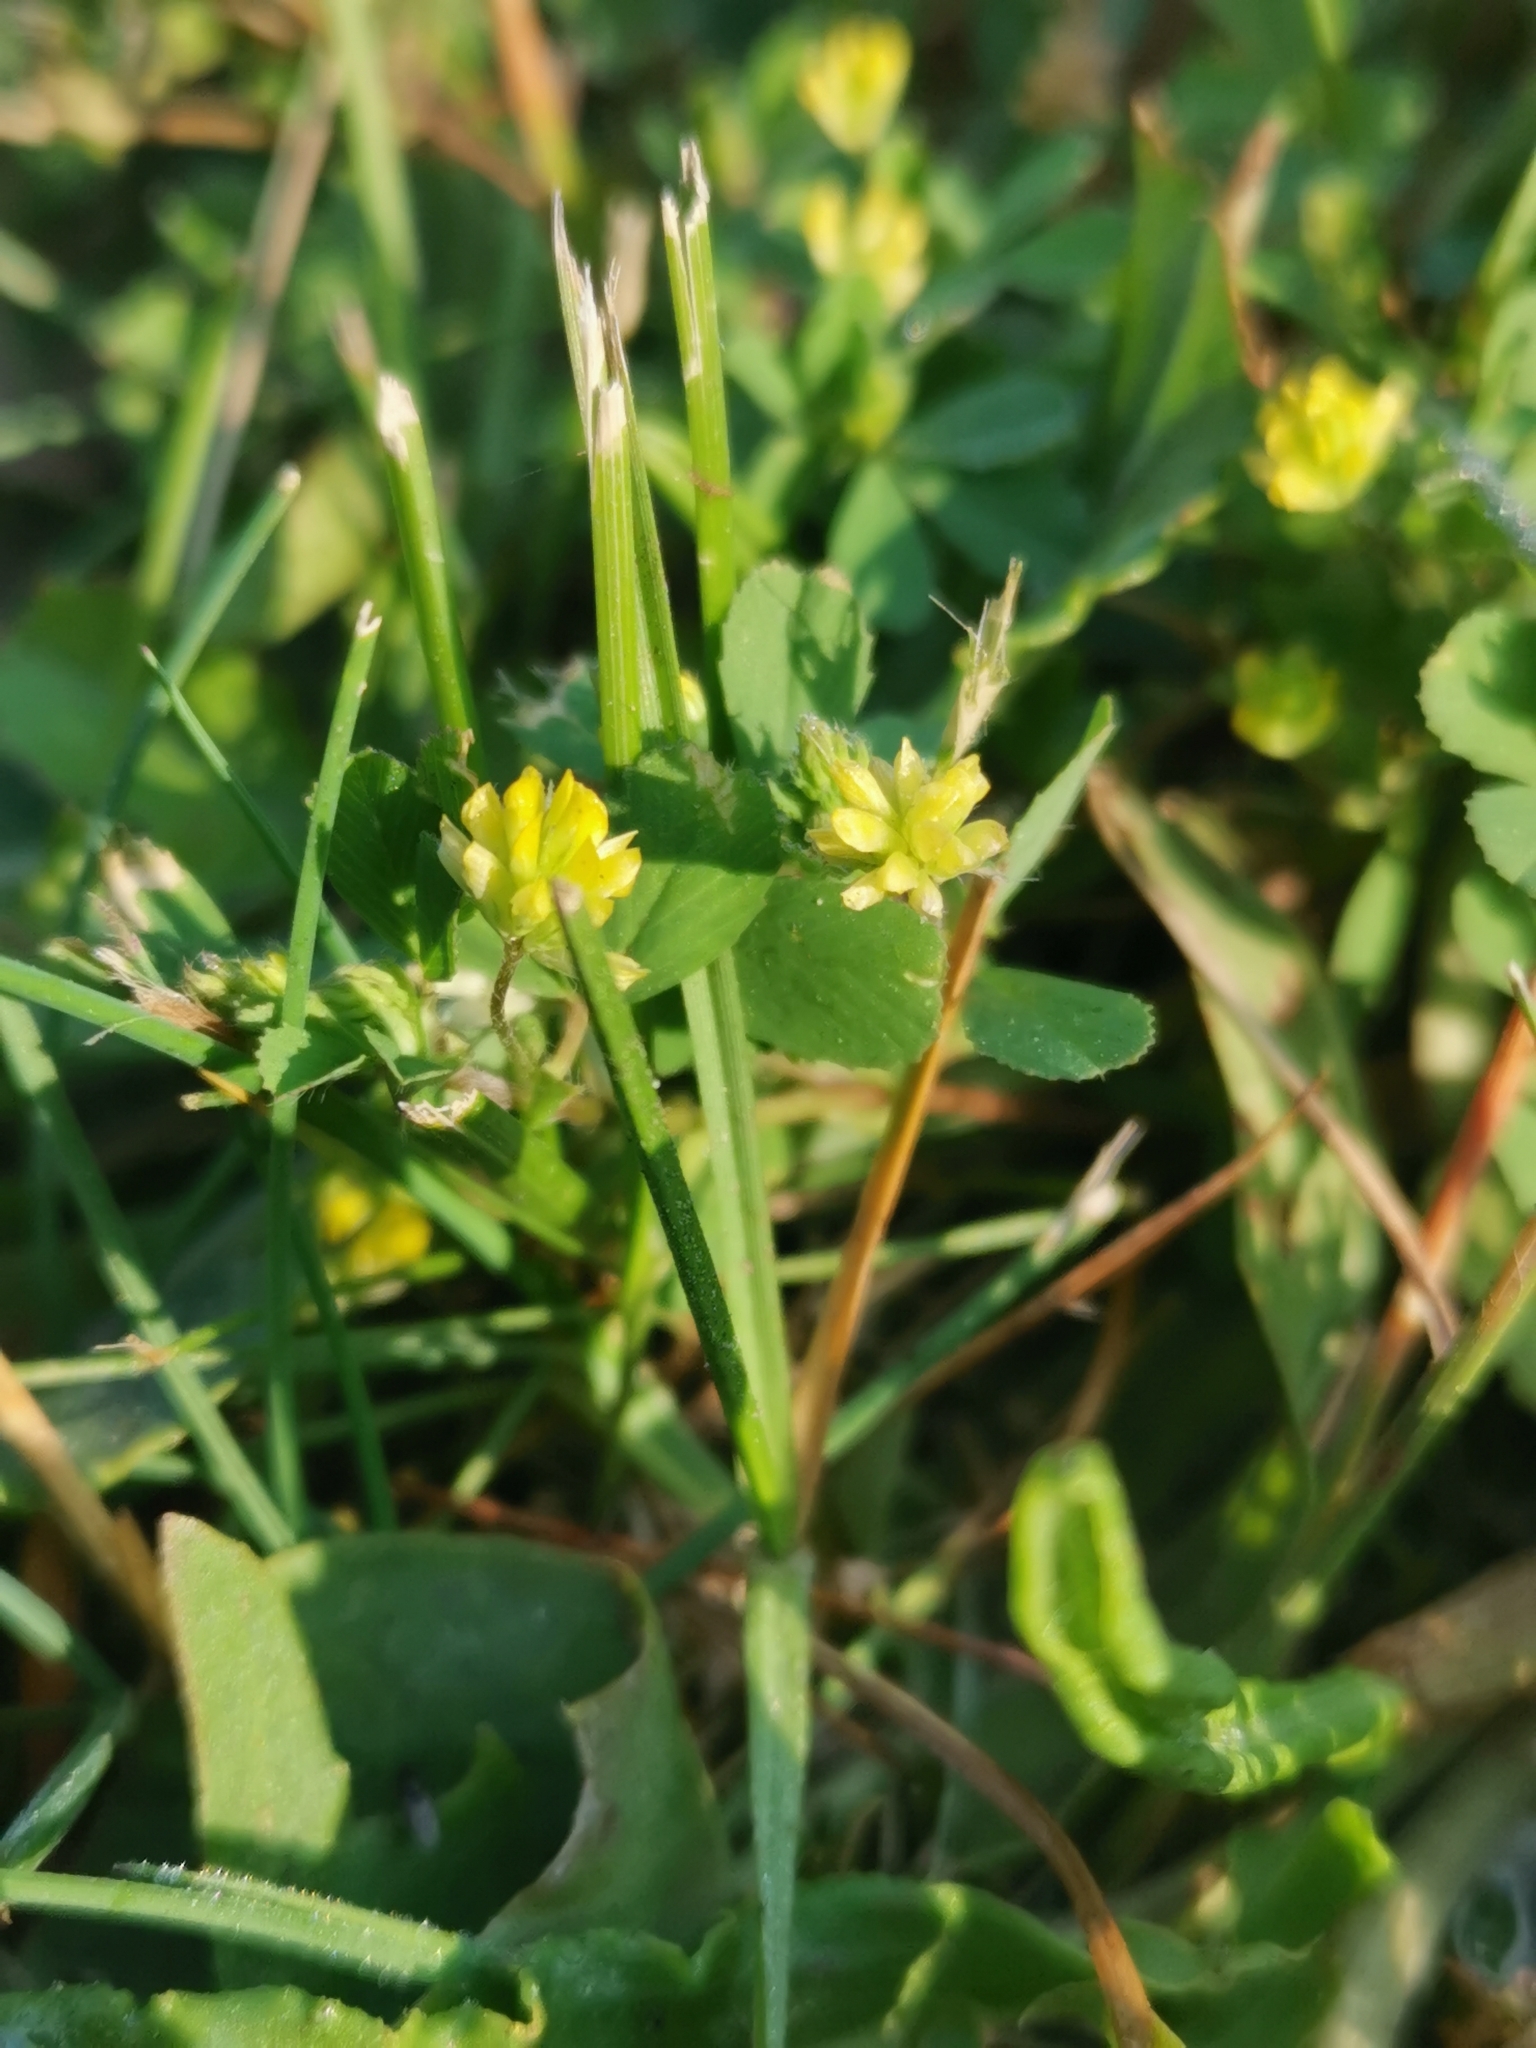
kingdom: Plantae
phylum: Tracheophyta
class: Magnoliopsida
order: Fabales
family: Fabaceae
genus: Trifolium
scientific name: Trifolium dubium
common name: Suckling clover
